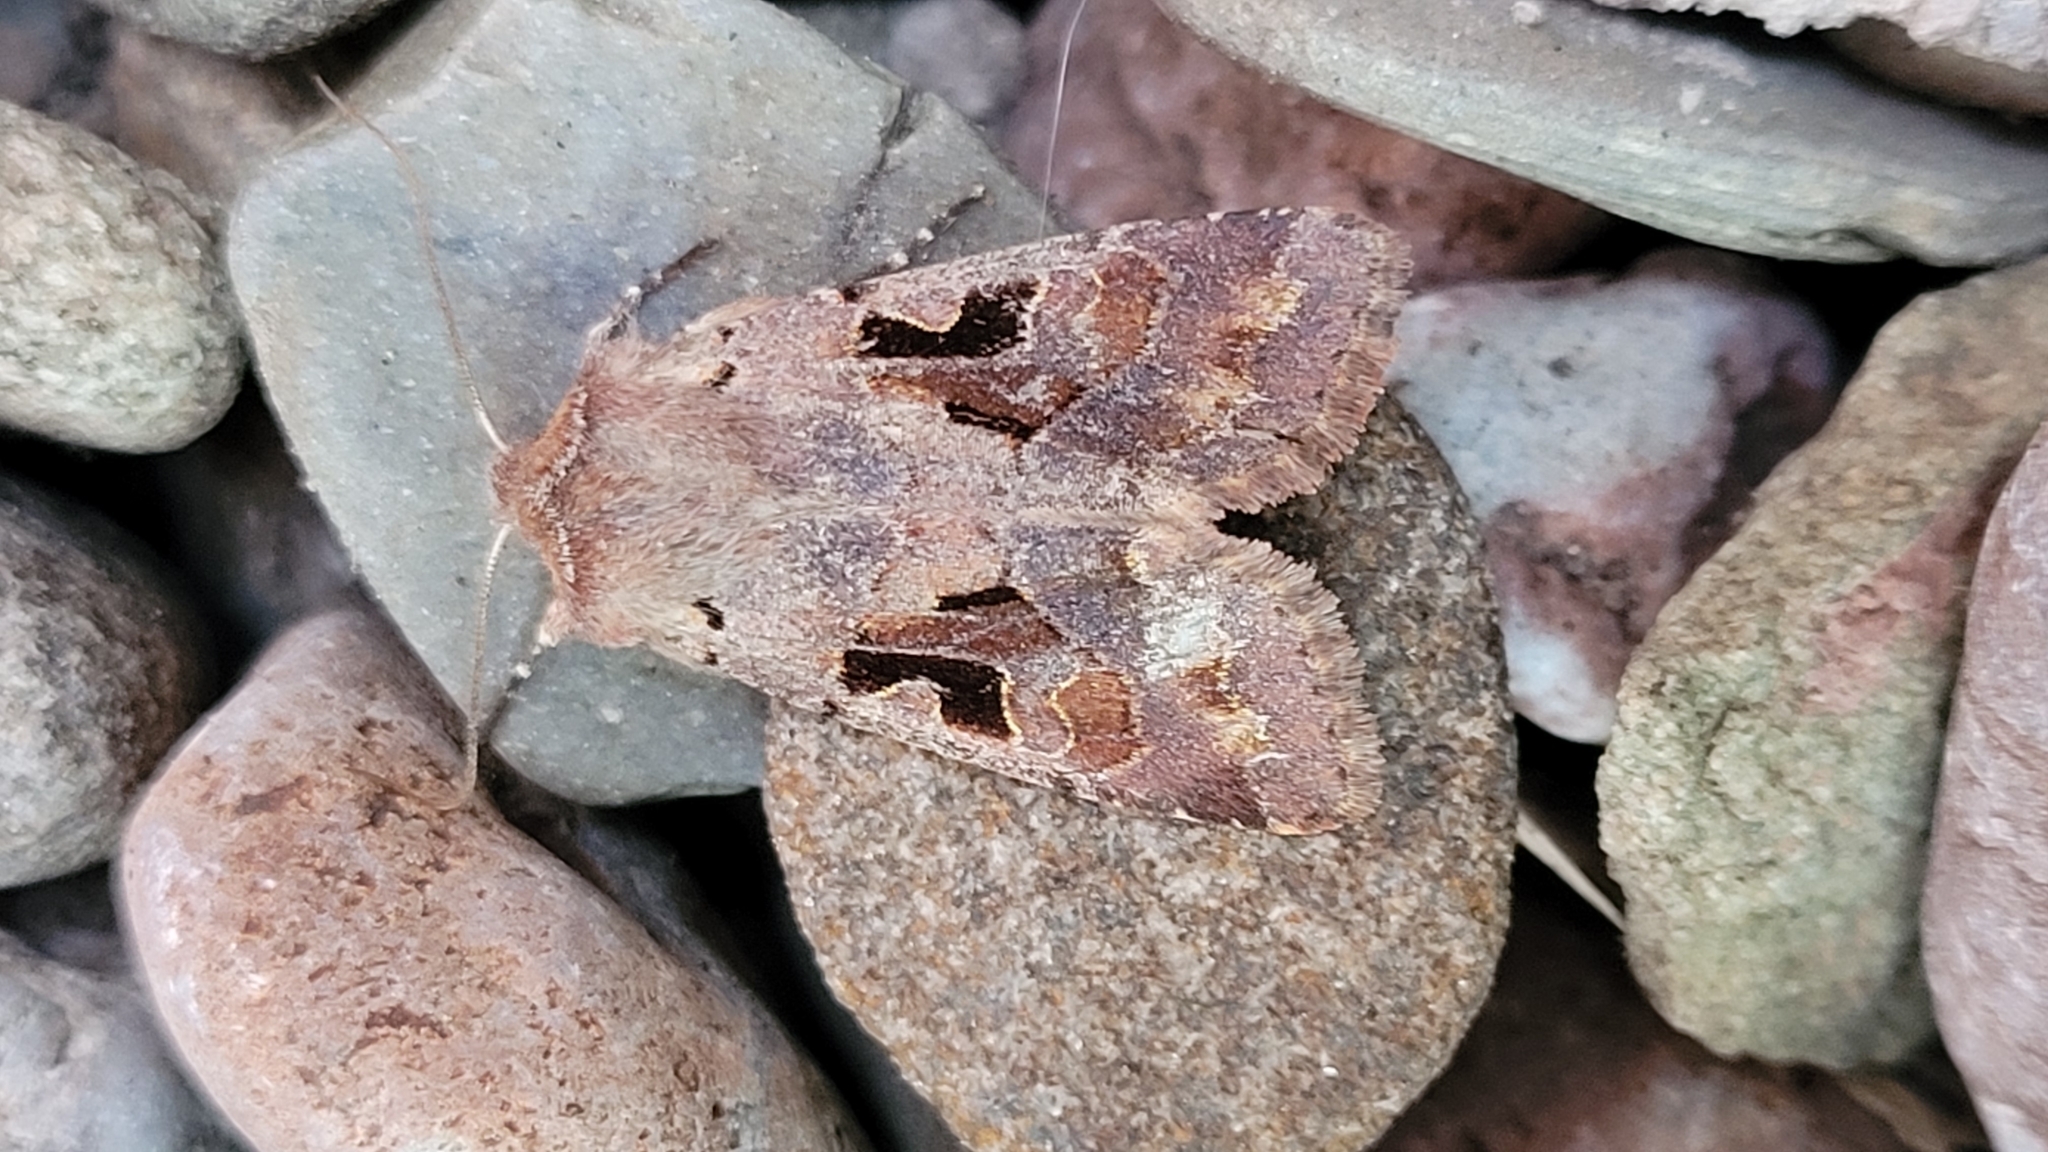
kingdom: Animalia
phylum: Arthropoda
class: Insecta
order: Lepidoptera
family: Noctuidae
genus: Orthosia
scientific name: Orthosia gothica
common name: Hebrew character
